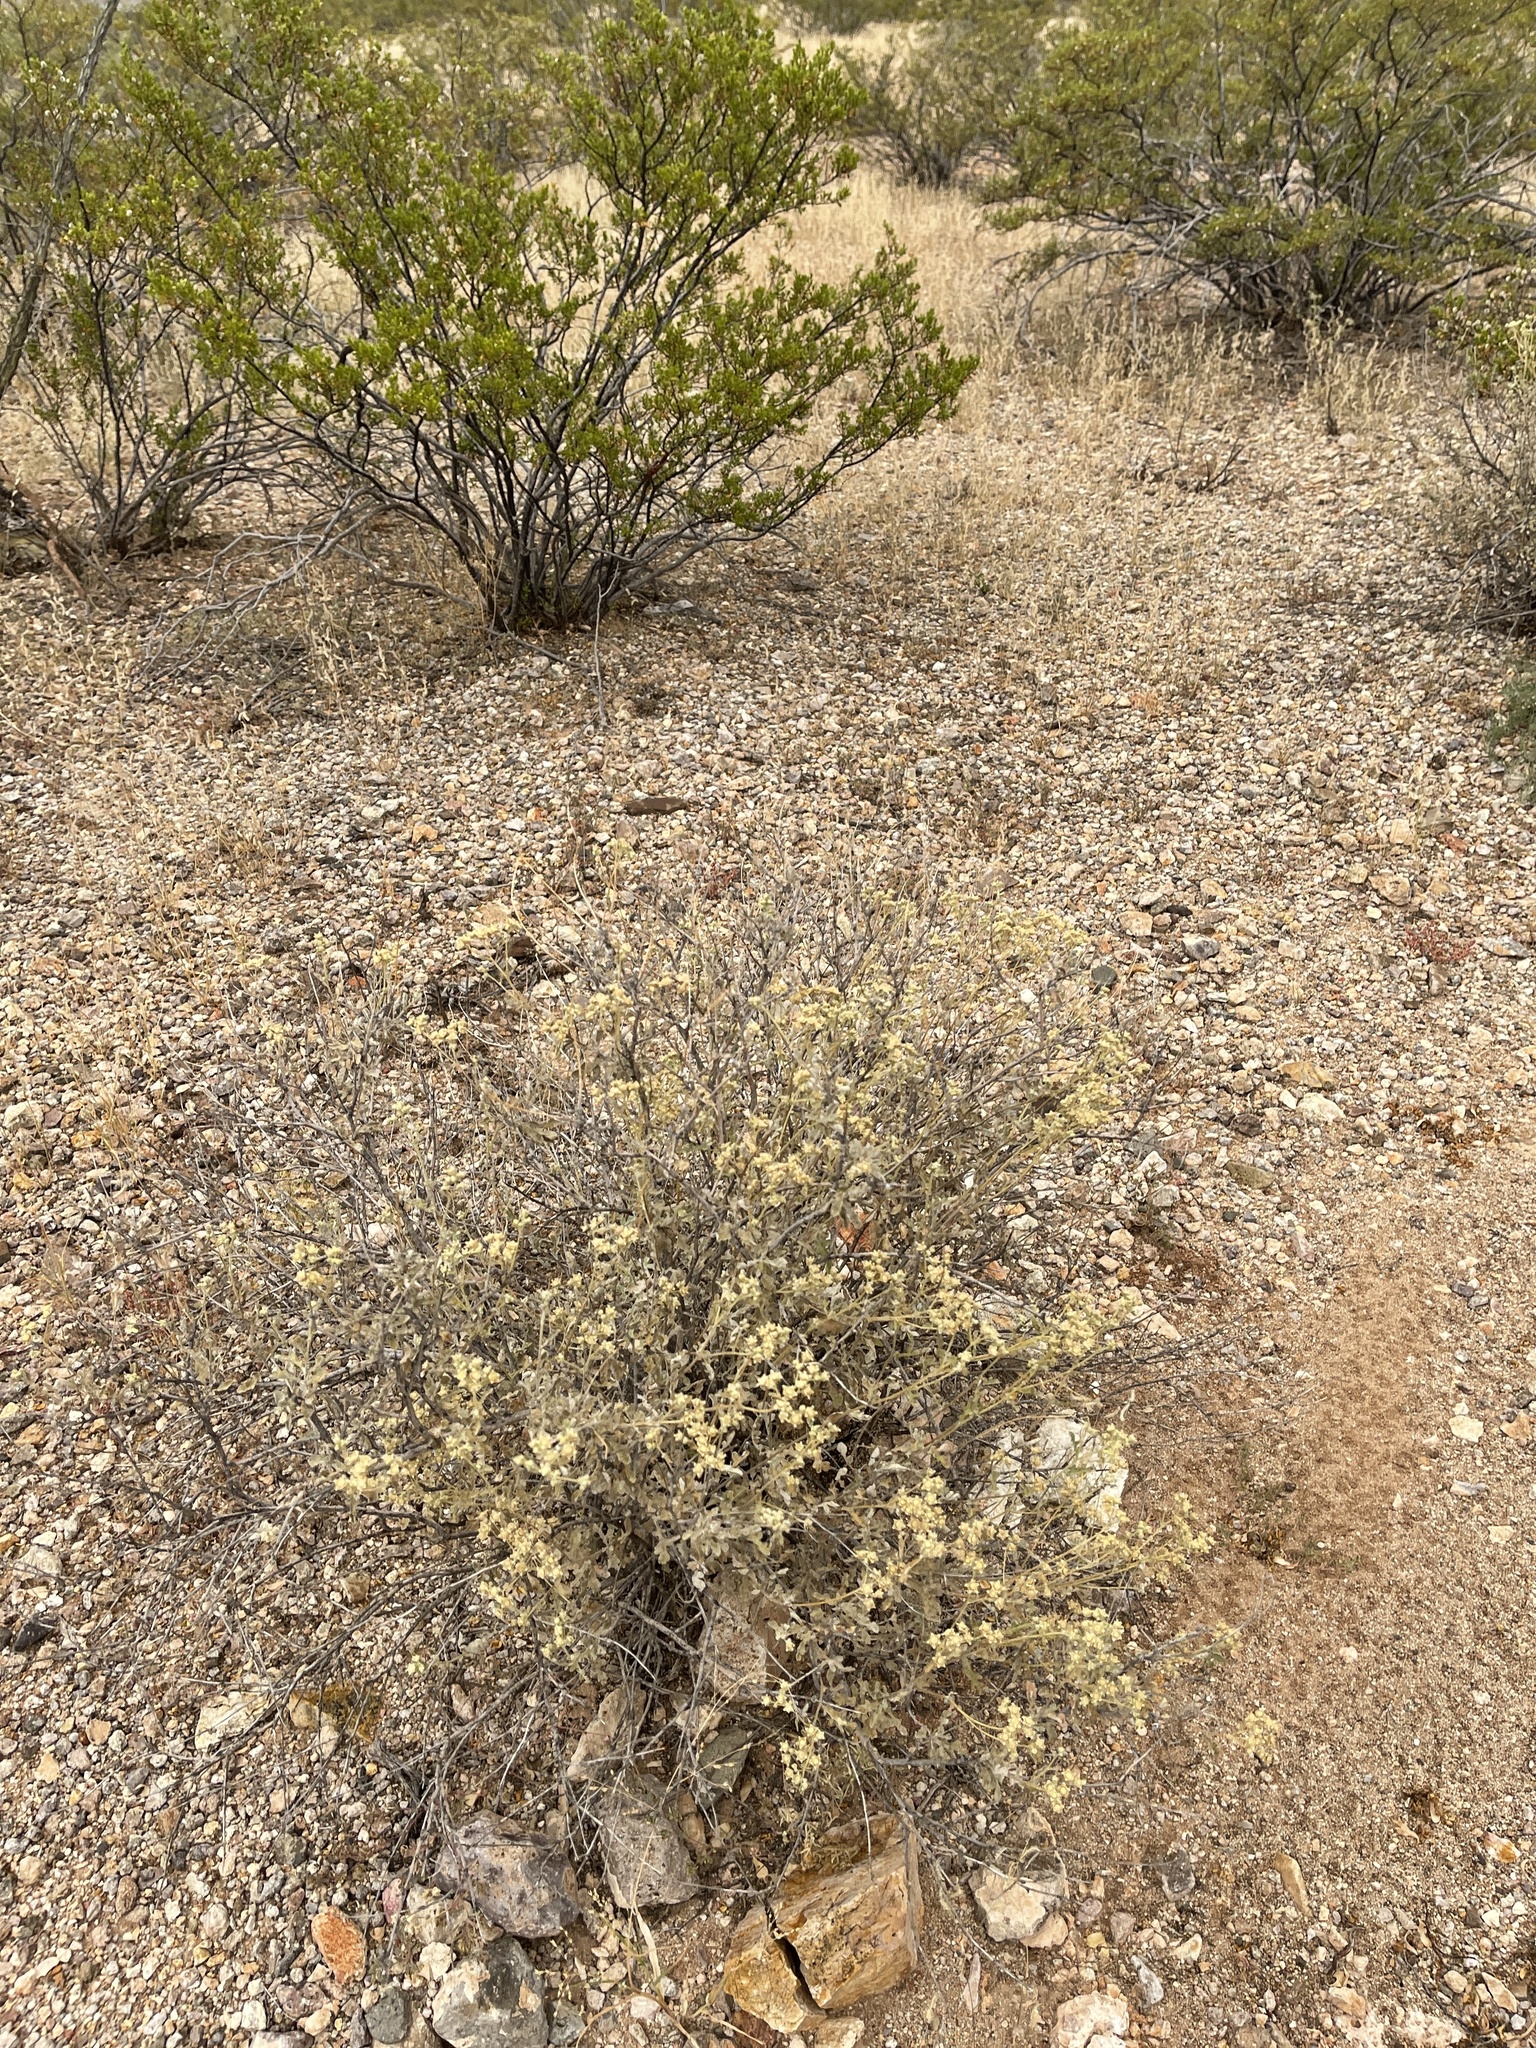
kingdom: Plantae
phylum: Tracheophyta
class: Magnoliopsida
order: Asterales
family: Asteraceae
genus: Parthenium
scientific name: Parthenium incanum
